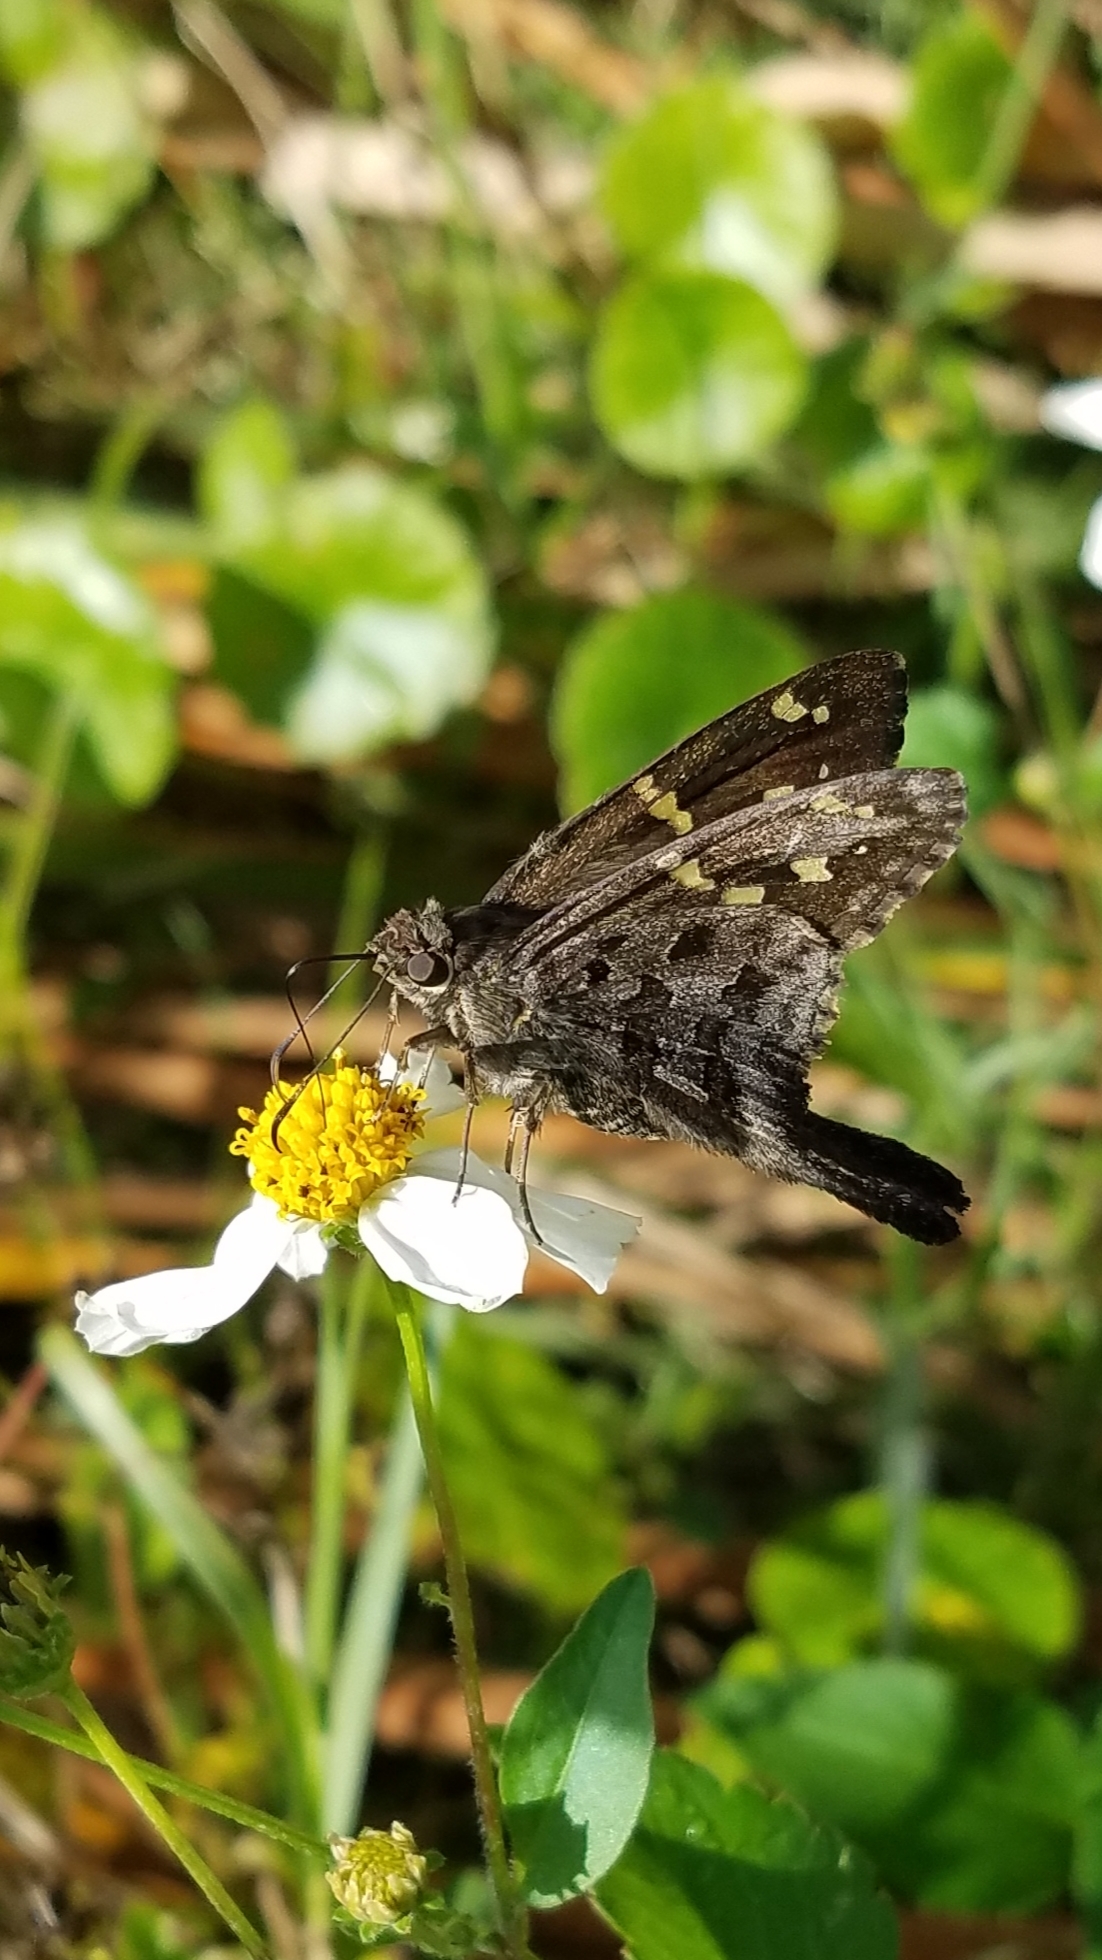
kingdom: Animalia
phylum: Arthropoda
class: Insecta
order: Lepidoptera
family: Hesperiidae
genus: Thorybes
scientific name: Thorybes
